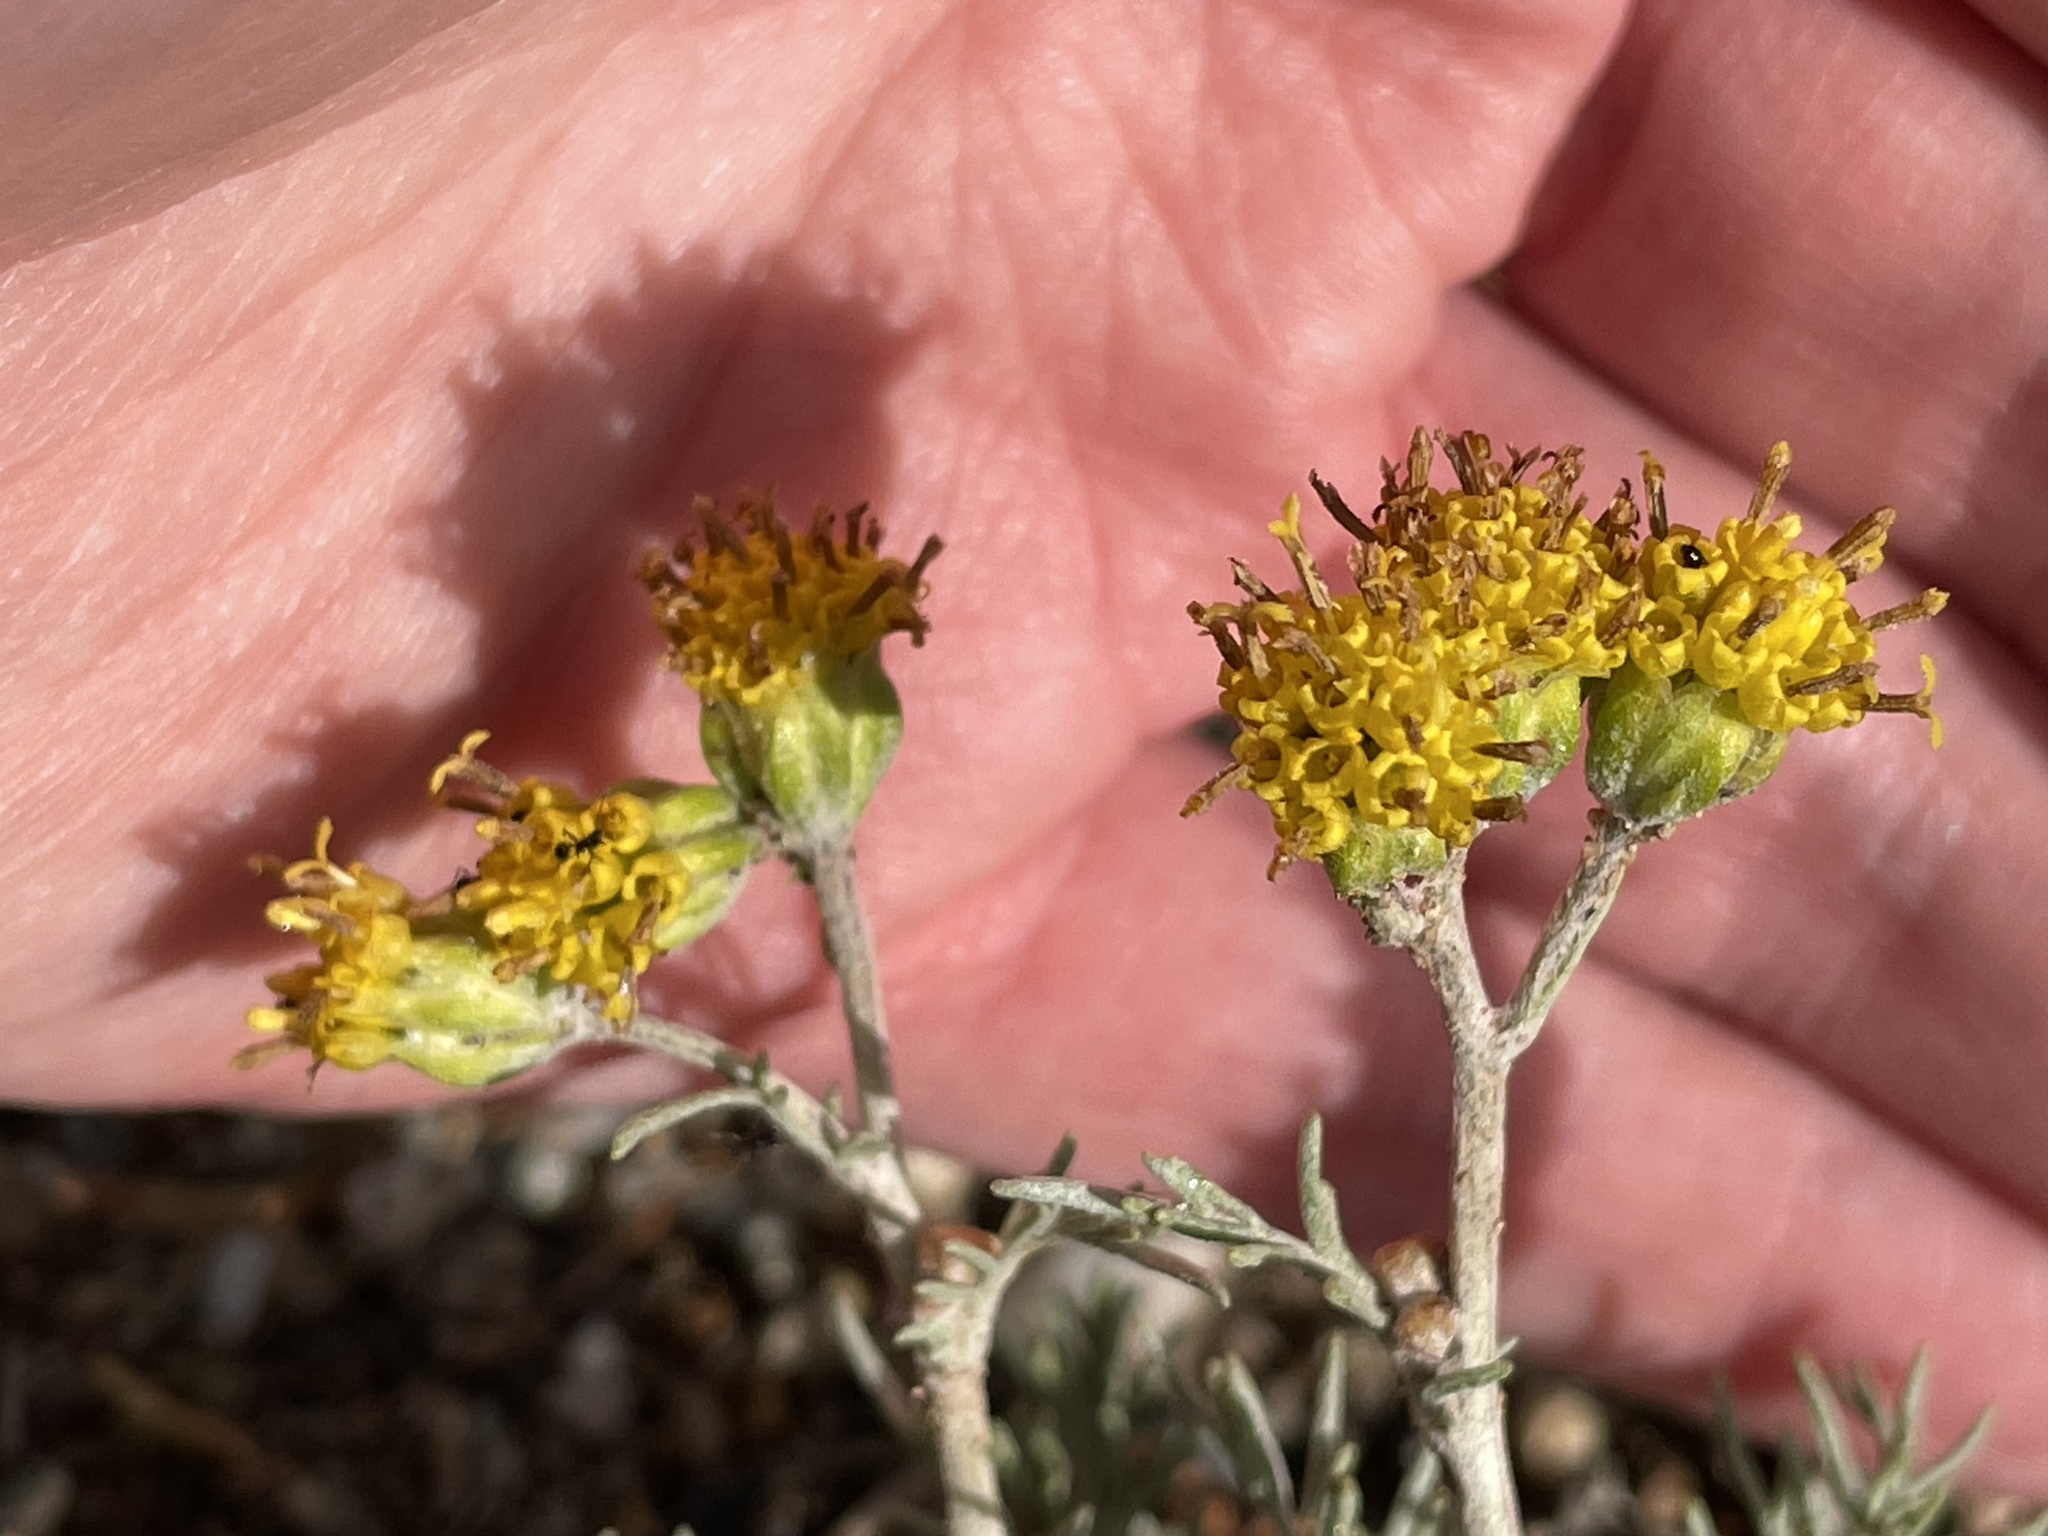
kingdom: Plantae
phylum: Tracheophyta
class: Magnoliopsida
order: Asterales
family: Asteraceae
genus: Hymenopappus
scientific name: Hymenopappus filifolius
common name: Columbia cutleaf
